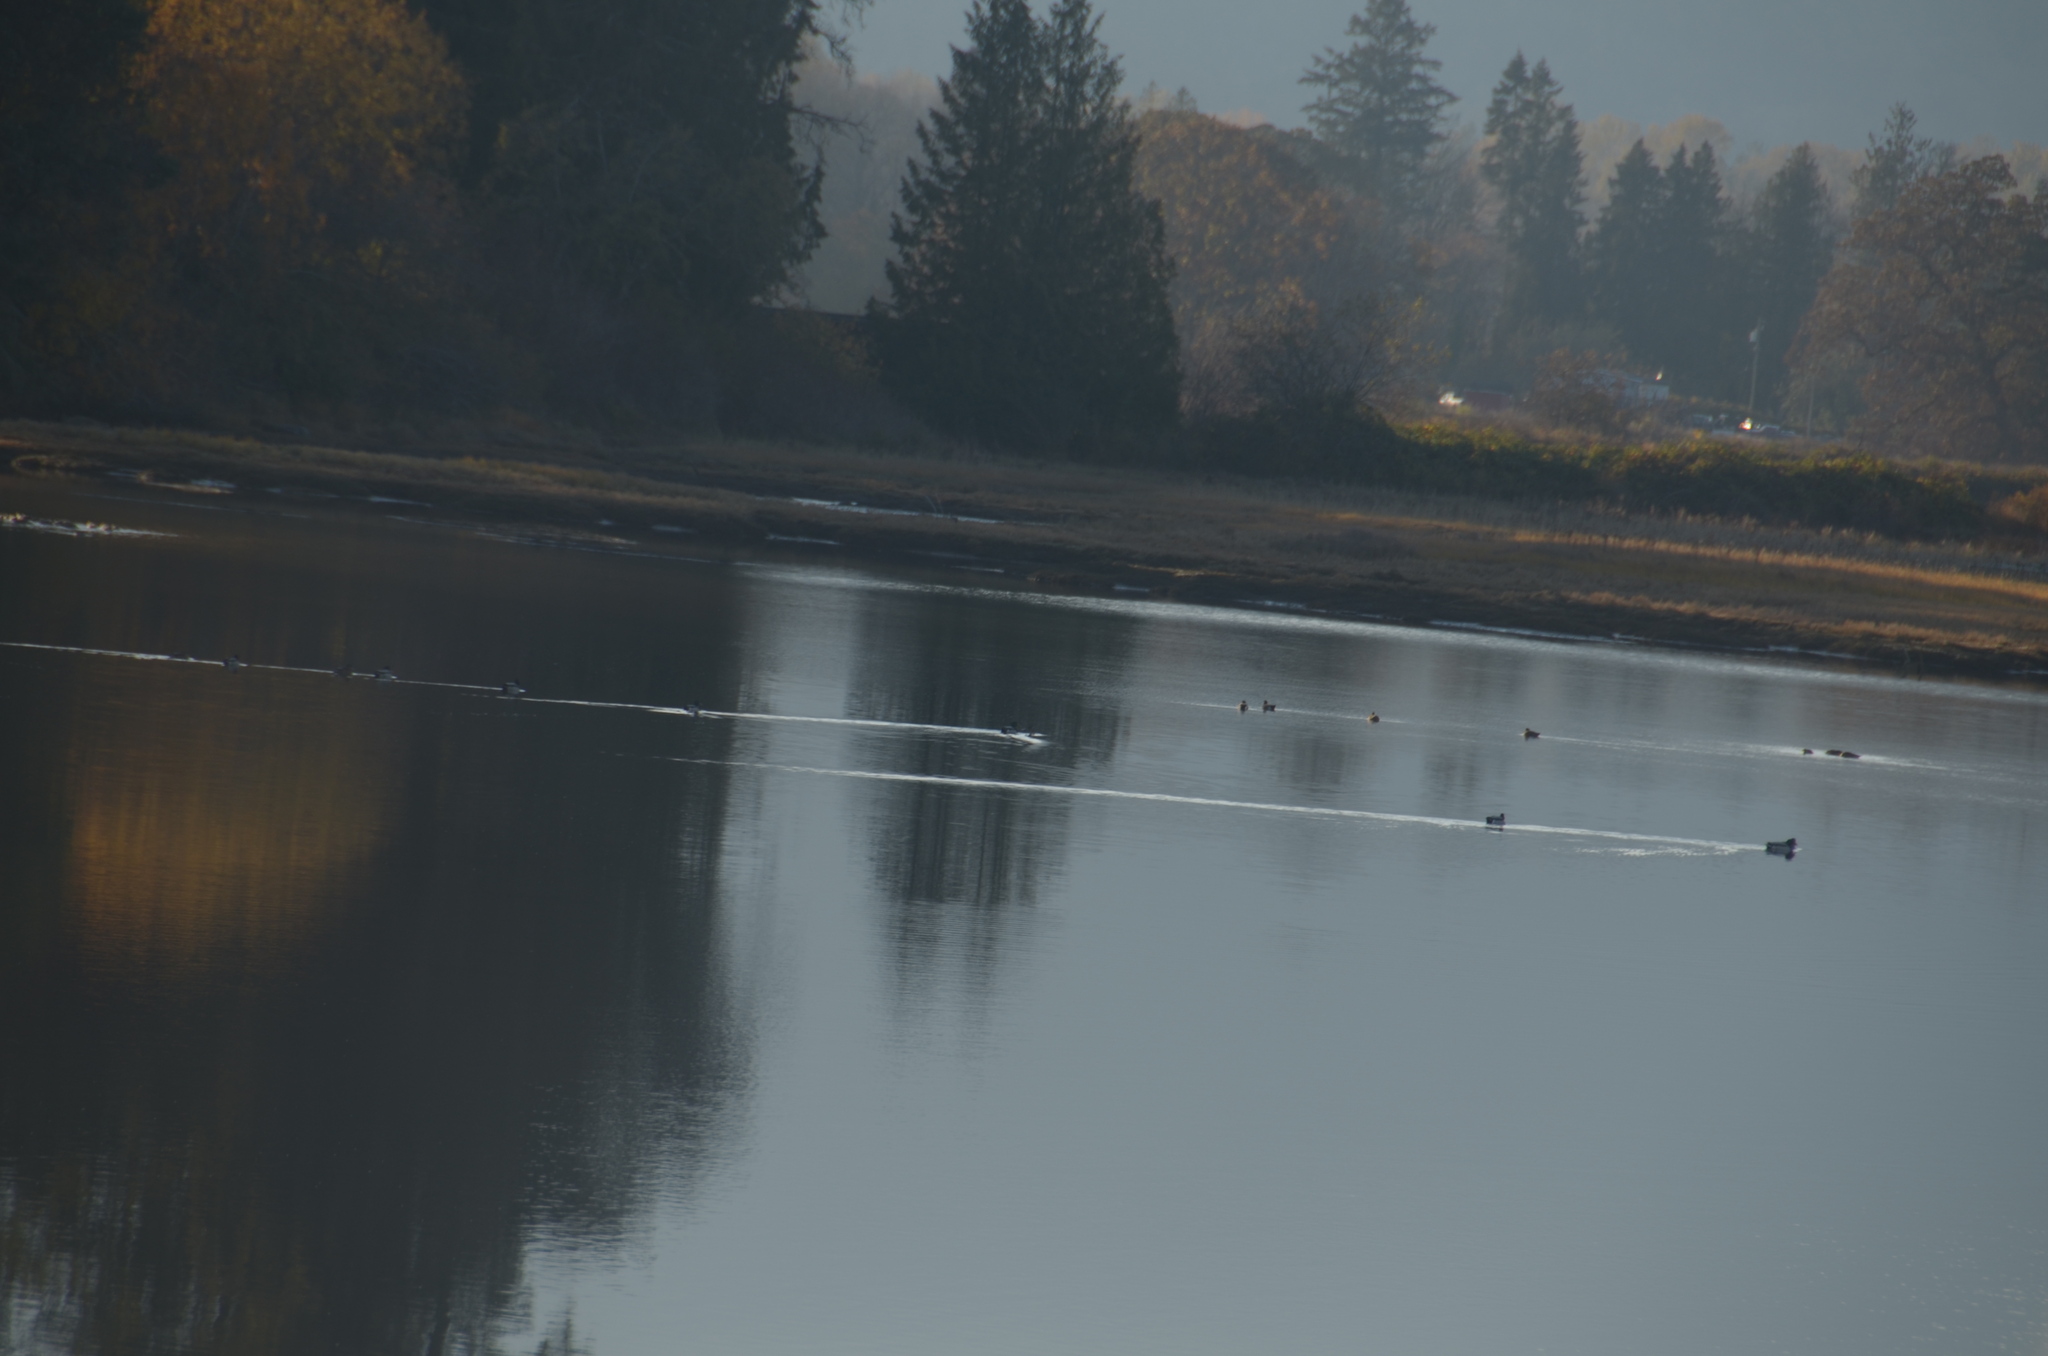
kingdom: Animalia
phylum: Chordata
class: Aves
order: Anseriformes
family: Anatidae
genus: Anas
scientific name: Anas platyrhynchos
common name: Mallard
